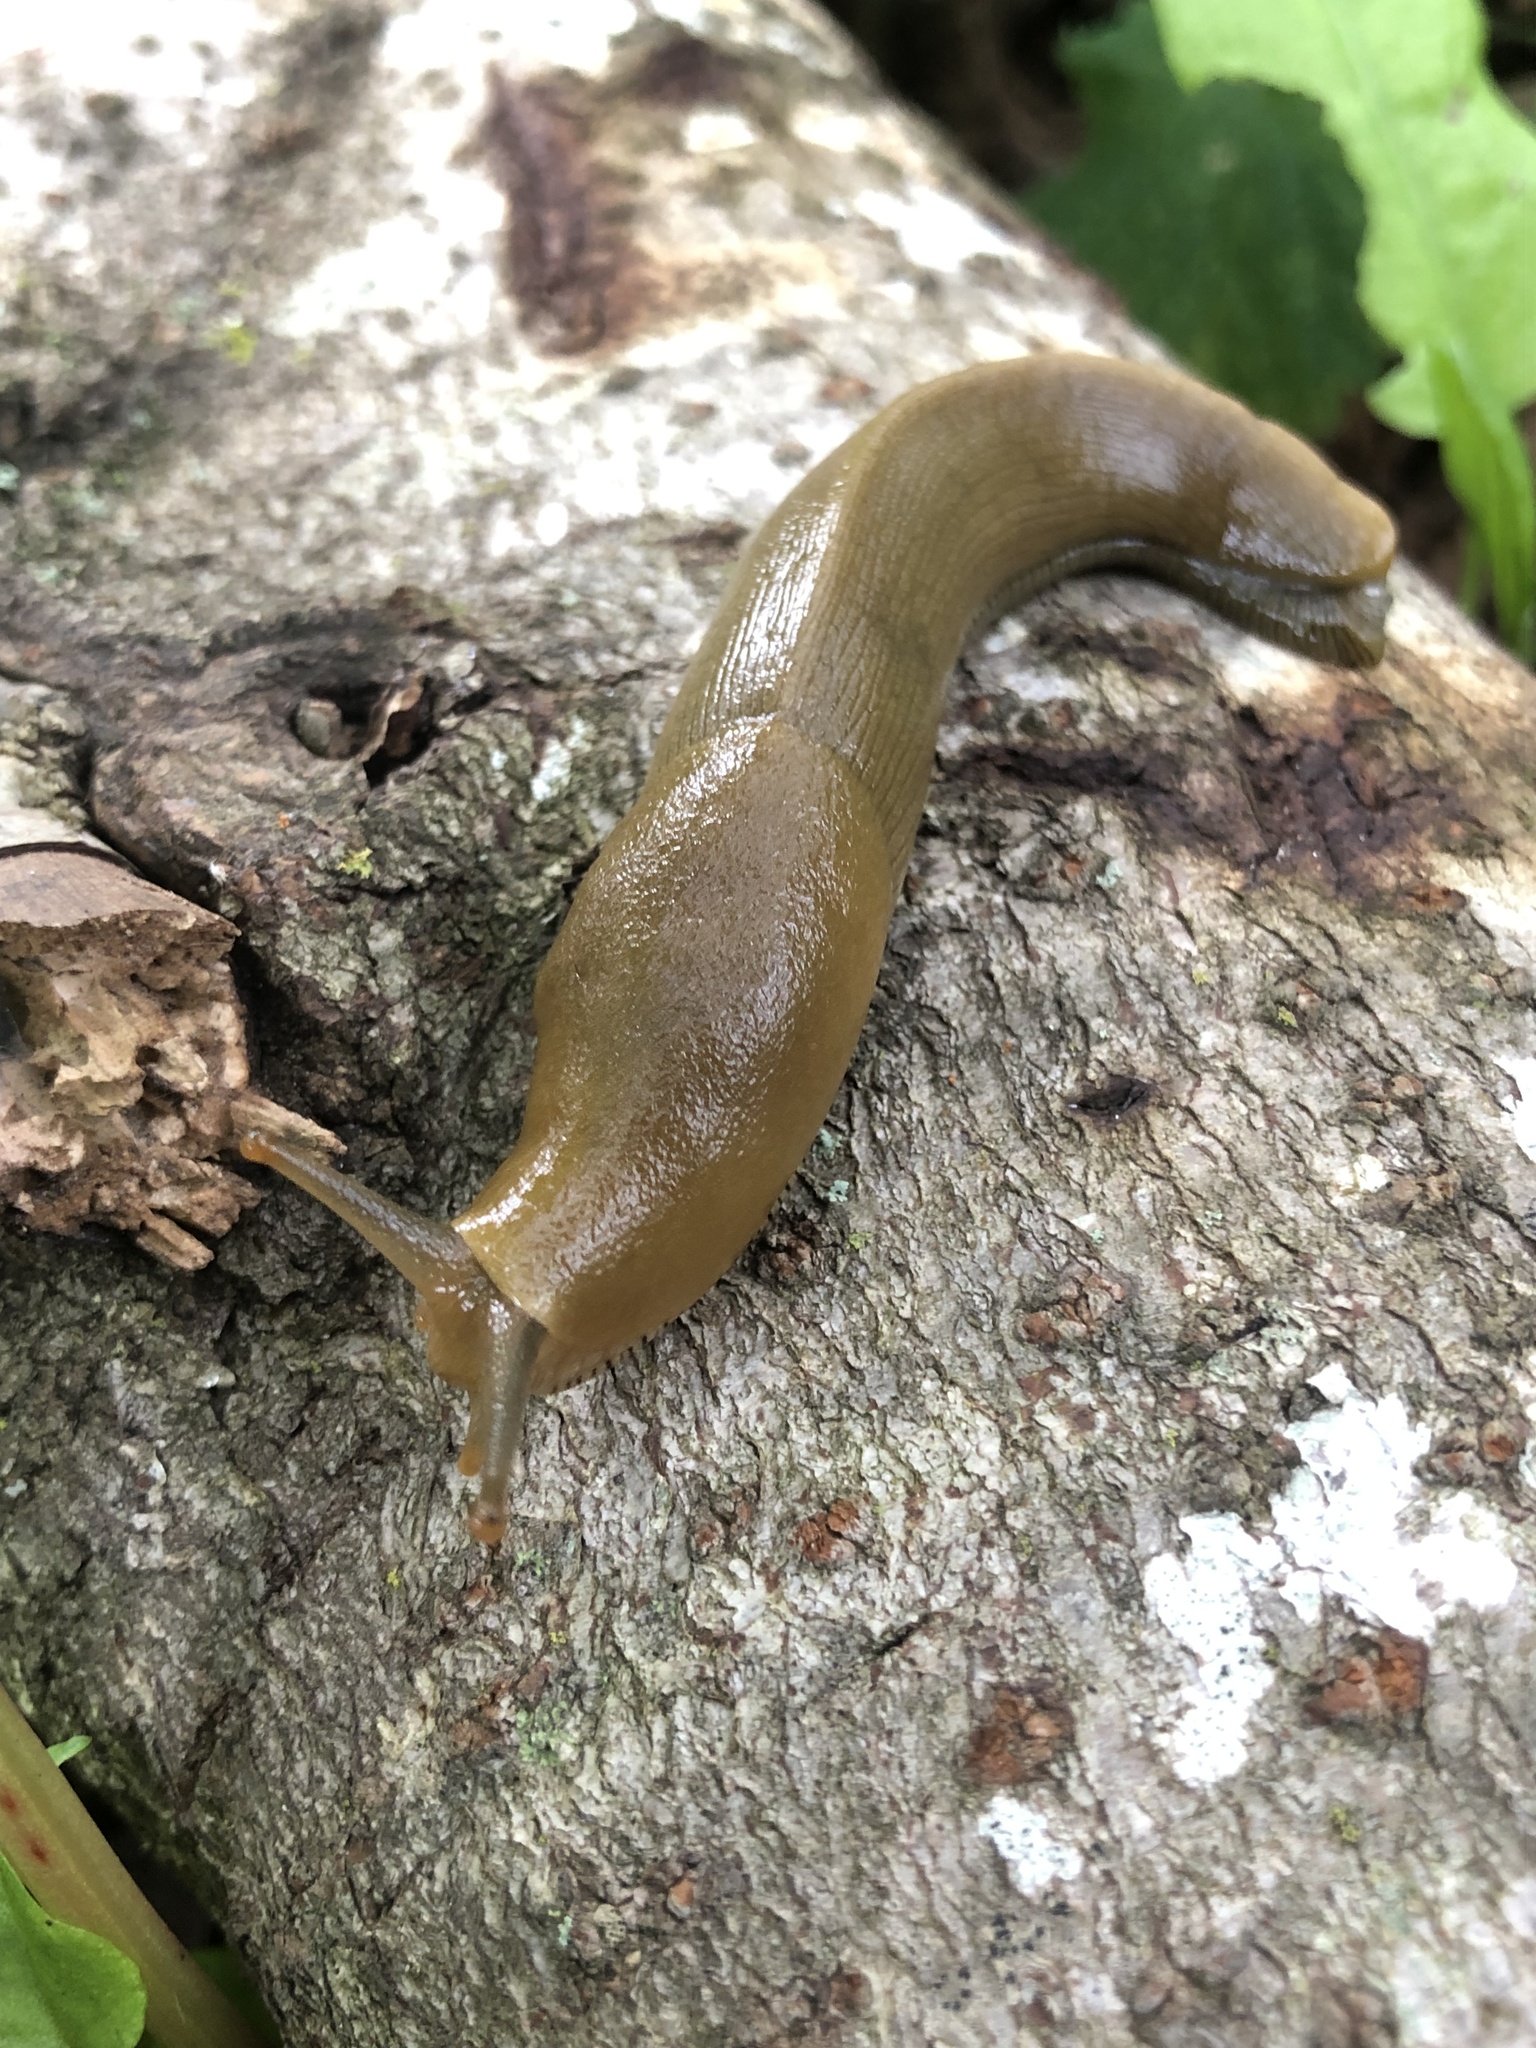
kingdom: Animalia
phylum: Mollusca
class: Gastropoda
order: Stylommatophora
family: Ariolimacidae
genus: Ariolimax
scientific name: Ariolimax buttoni
